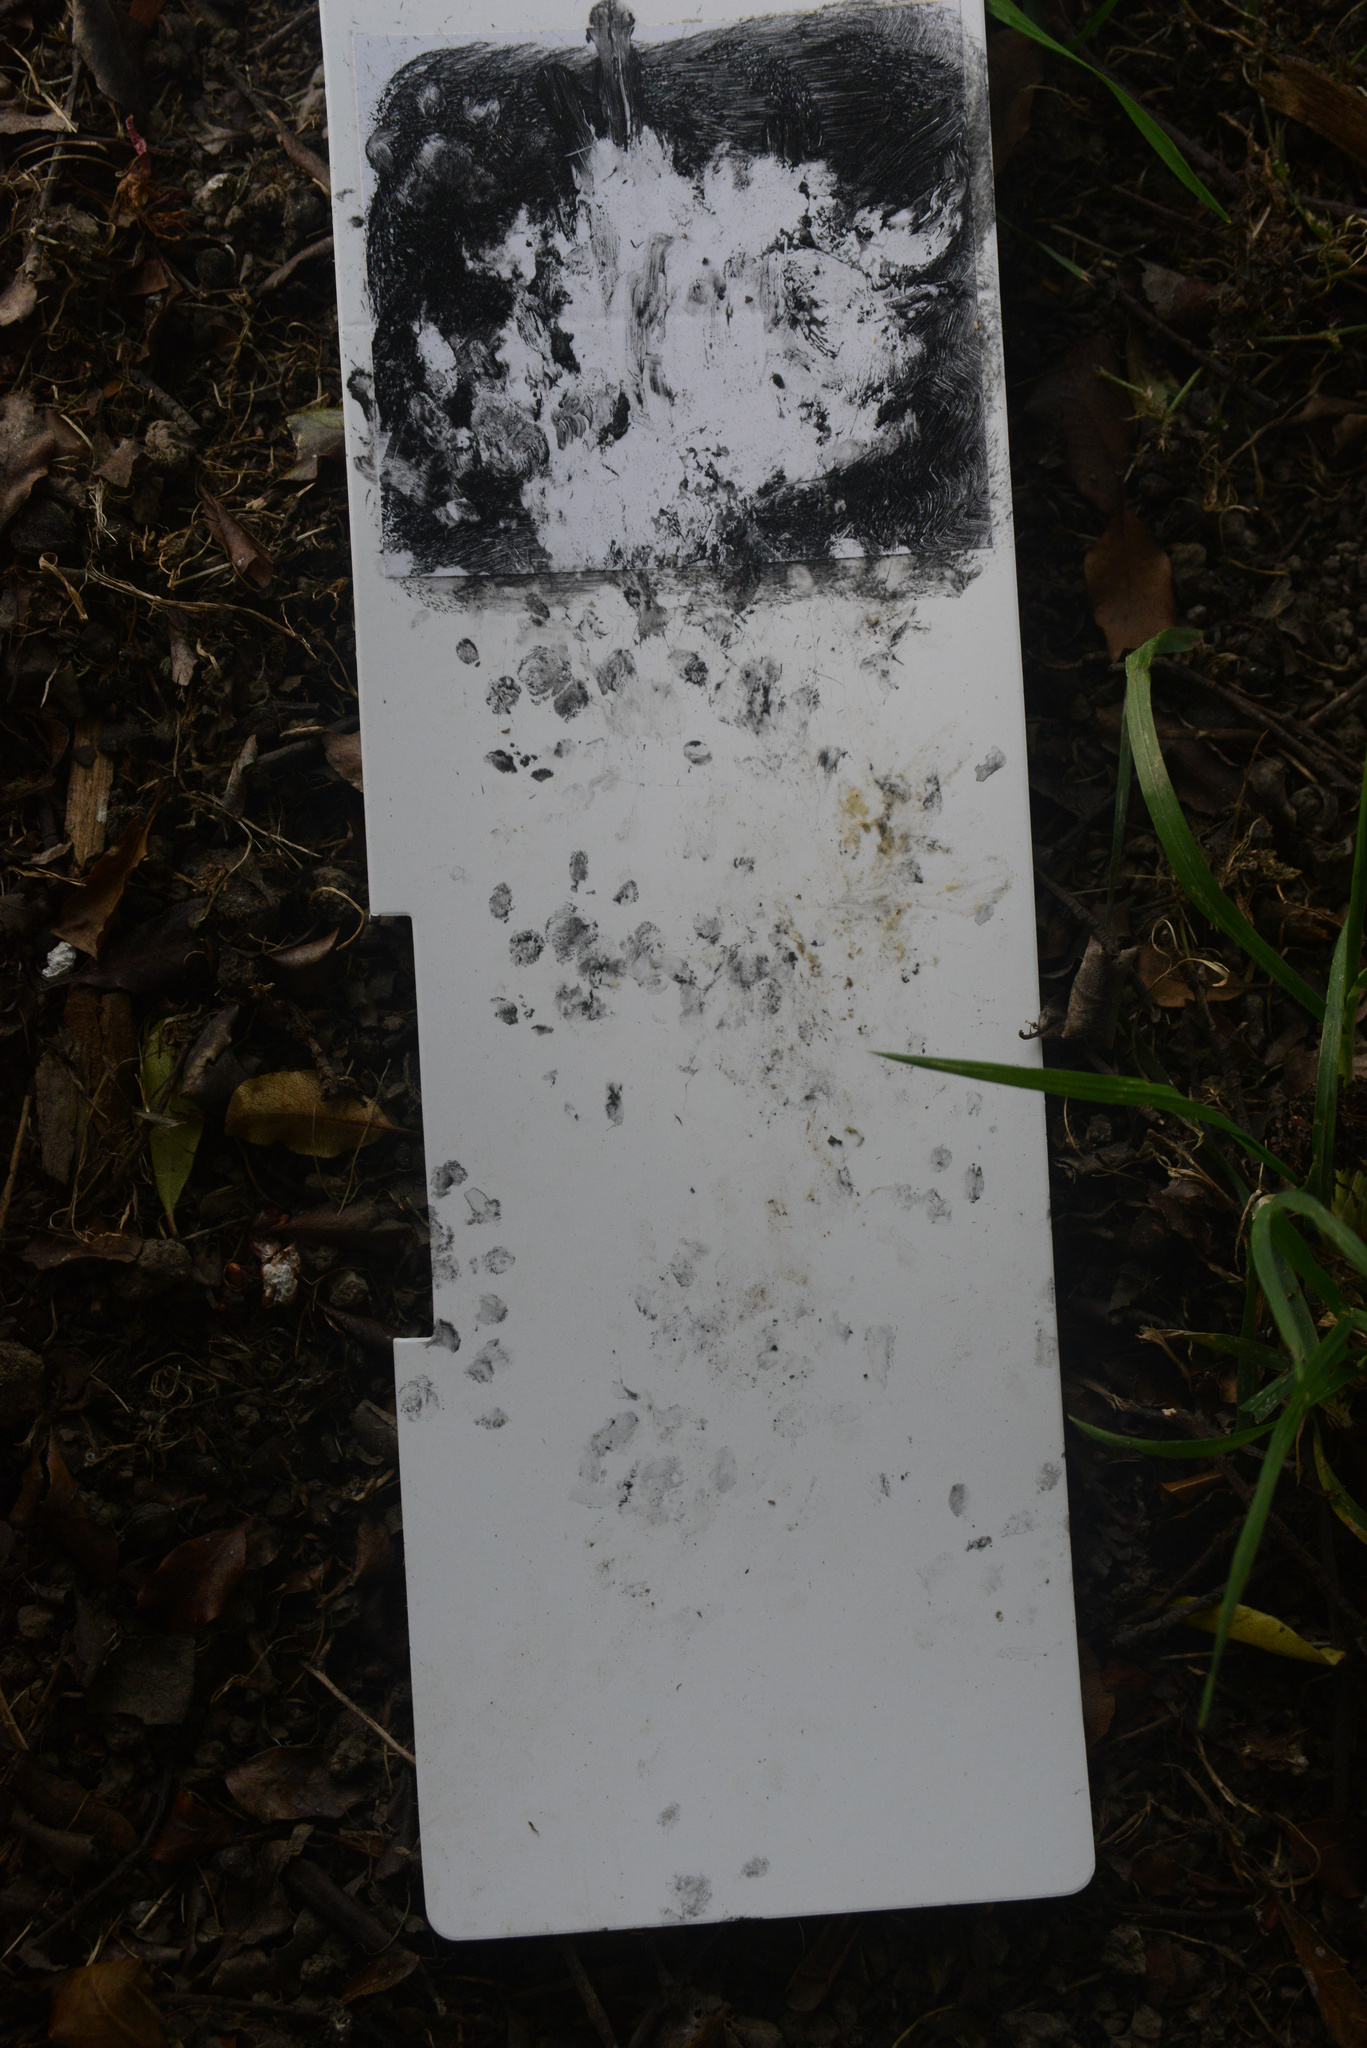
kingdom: Animalia
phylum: Chordata
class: Mammalia
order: Erinaceomorpha
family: Erinaceidae
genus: Erinaceus
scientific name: Erinaceus europaeus
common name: West european hedgehog
